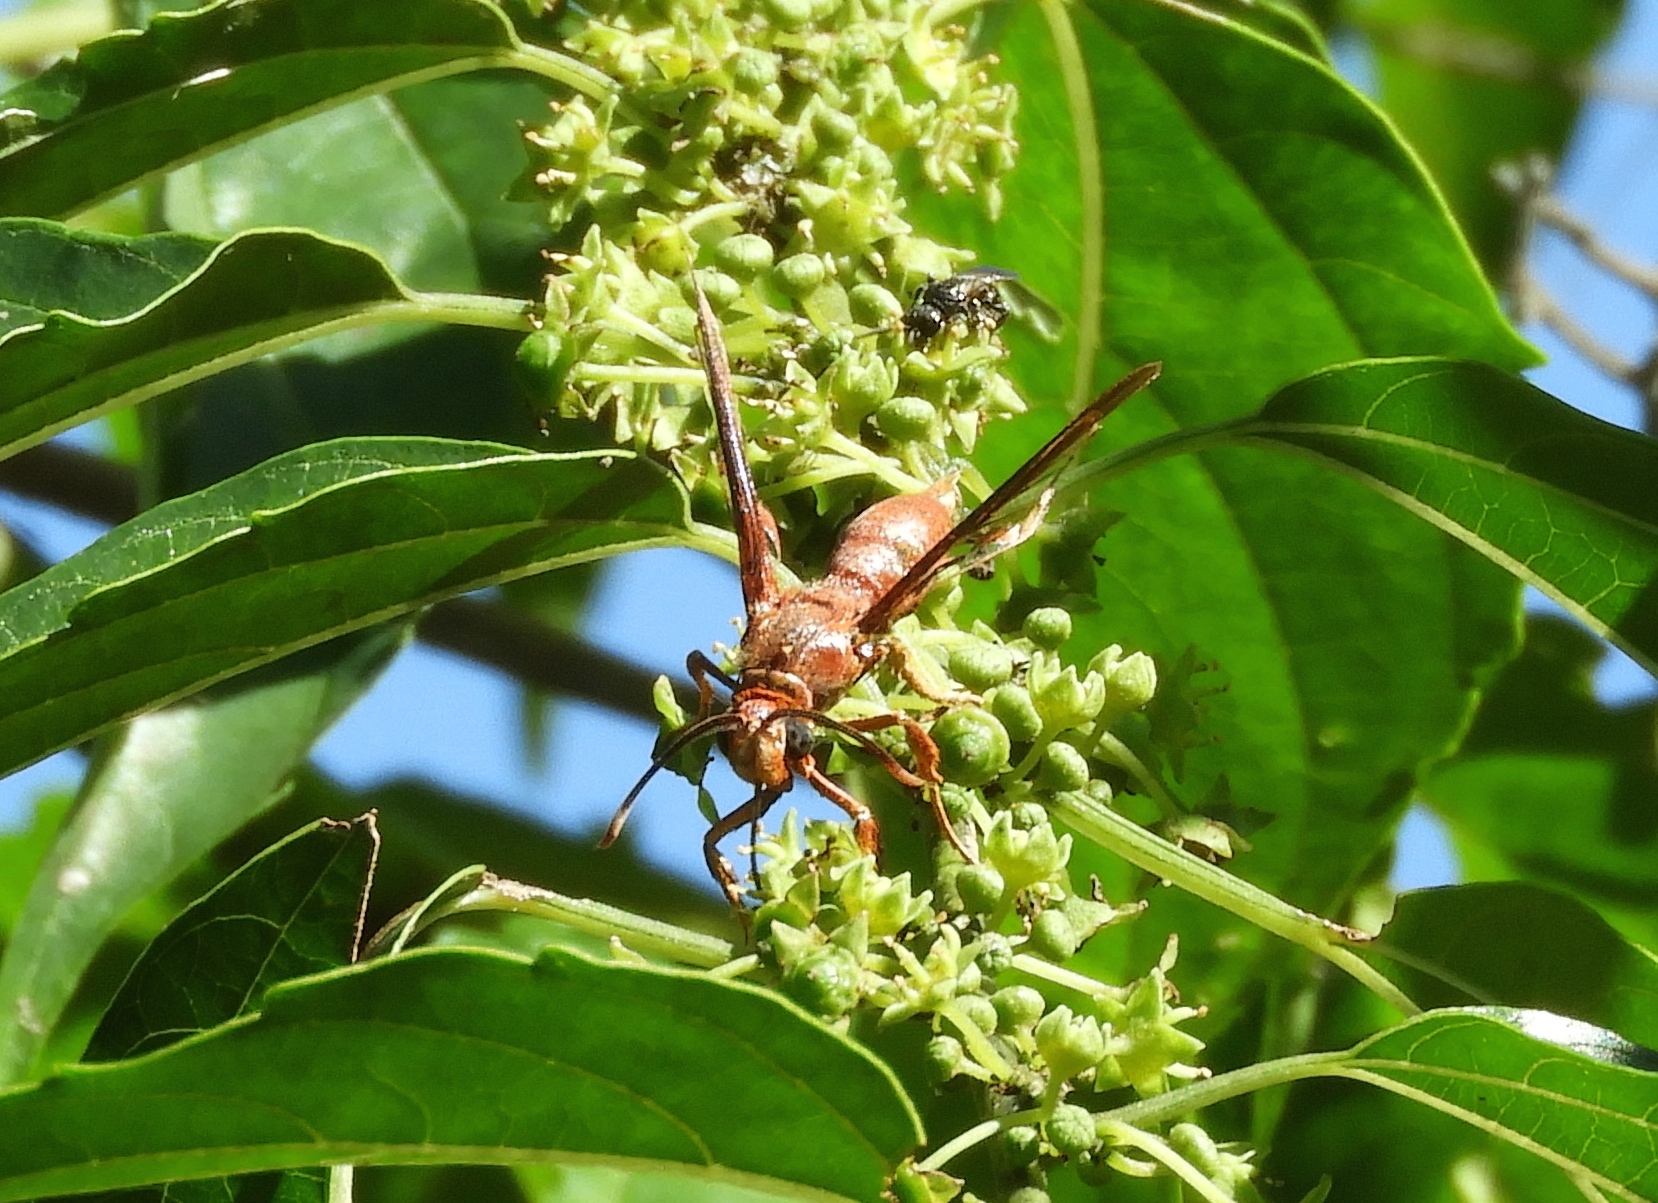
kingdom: Animalia
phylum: Arthropoda
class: Insecta
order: Lepidoptera
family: Erebidae
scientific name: Erebidae
